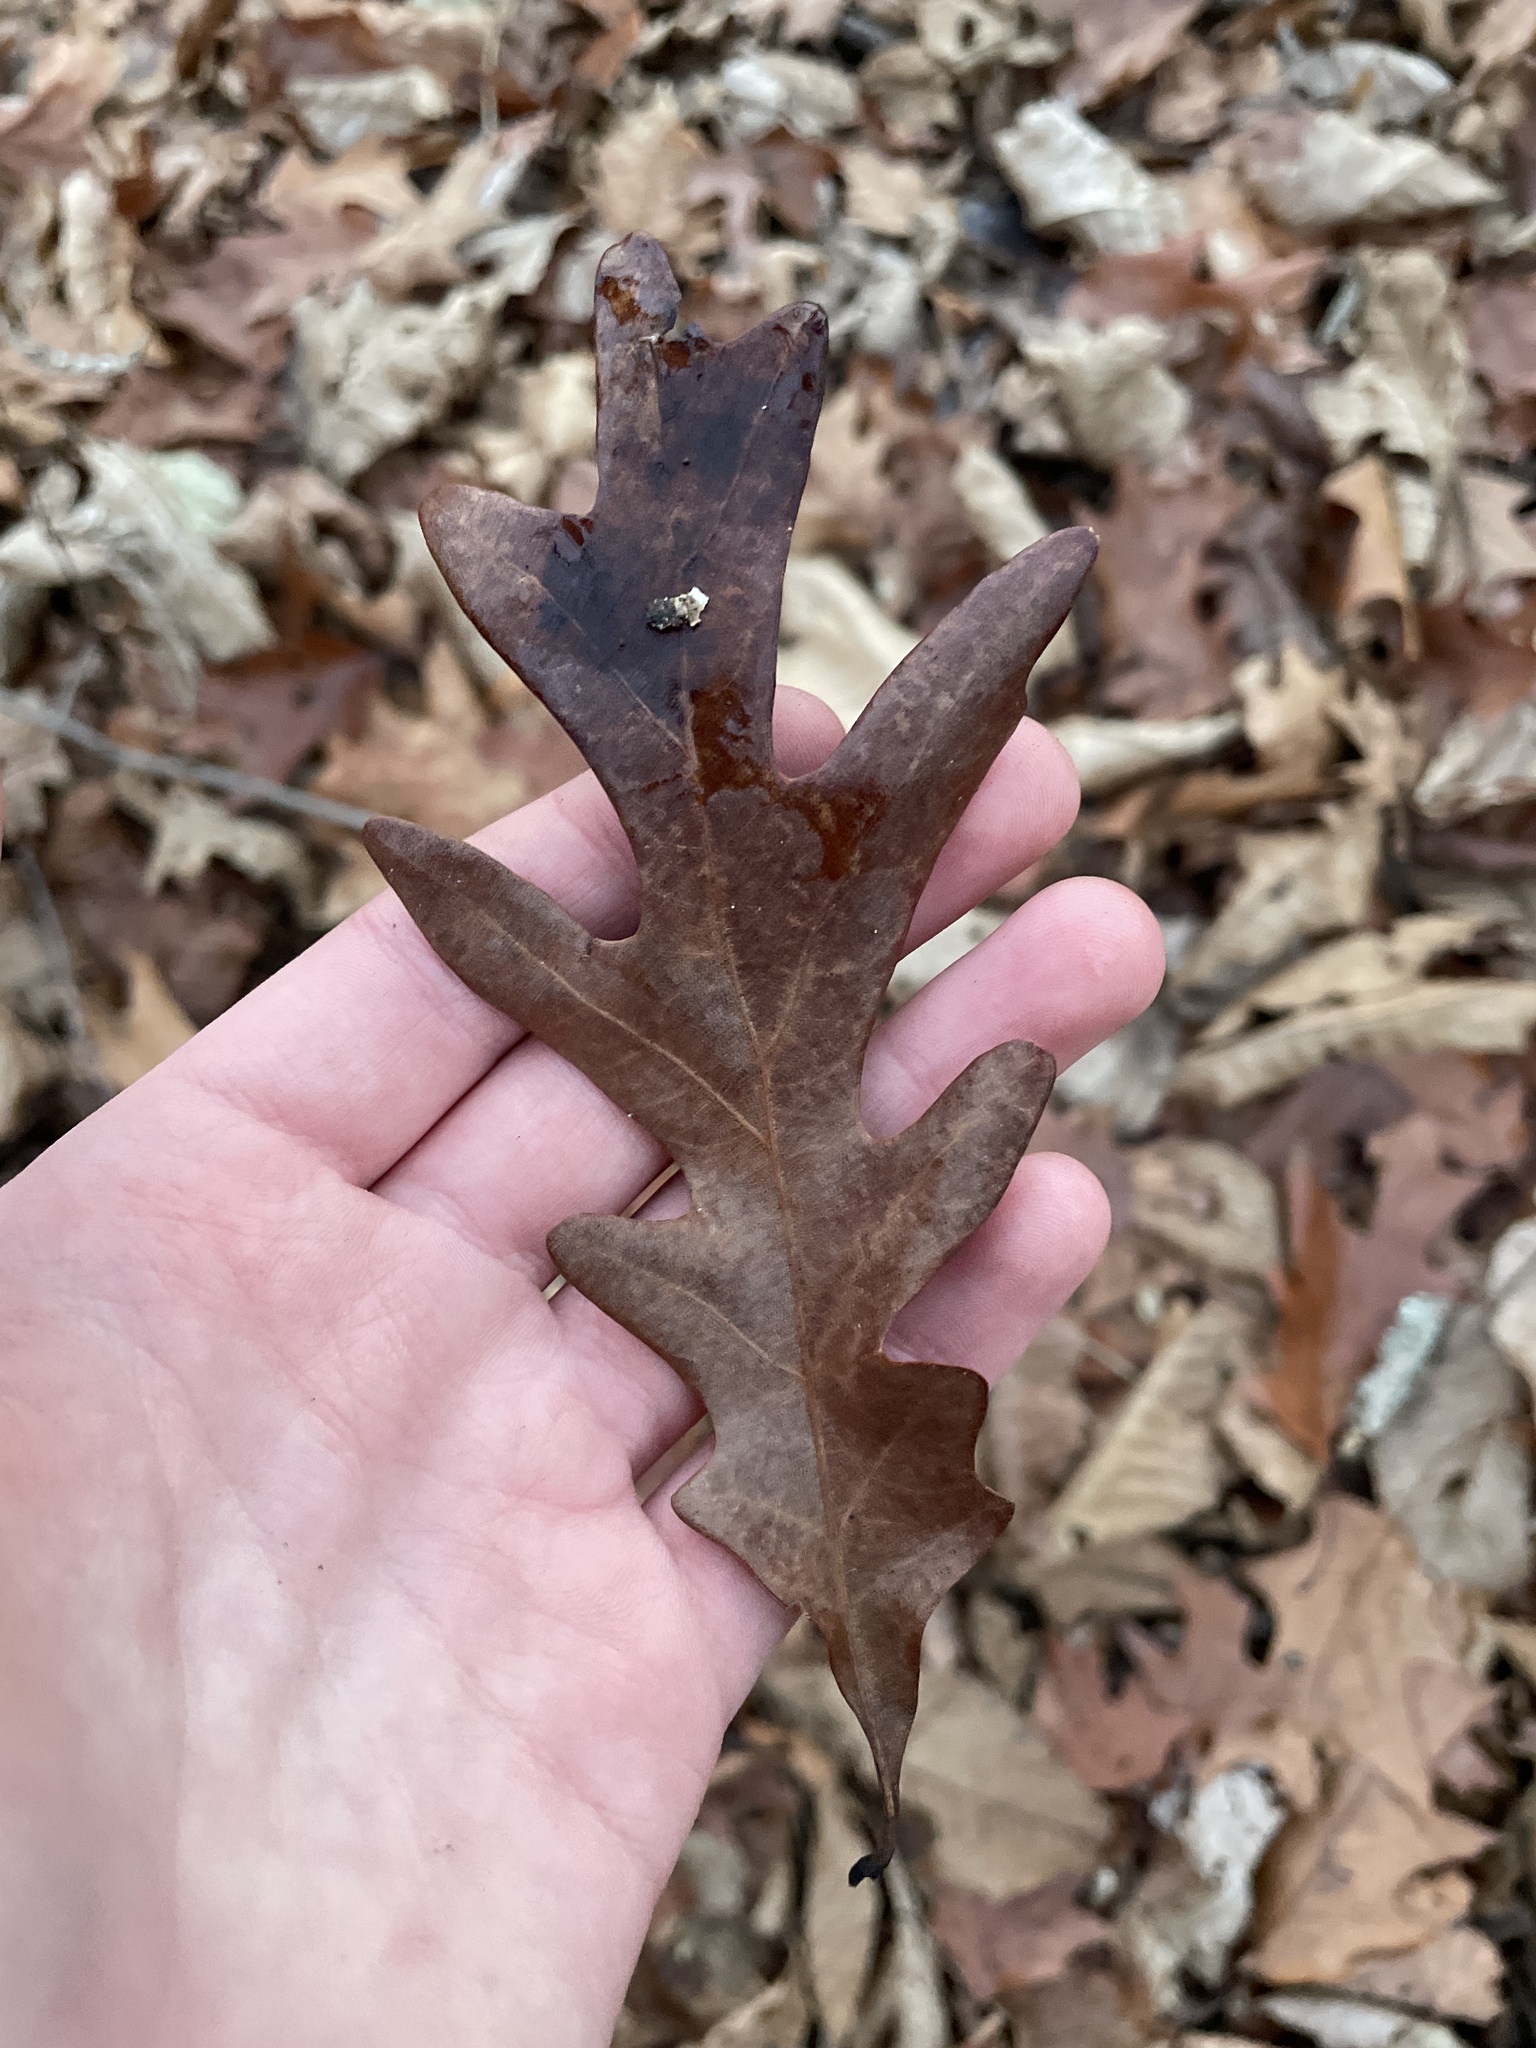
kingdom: Plantae
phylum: Tracheophyta
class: Magnoliopsida
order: Fagales
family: Fagaceae
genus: Quercus
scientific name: Quercus alba
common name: White oak
